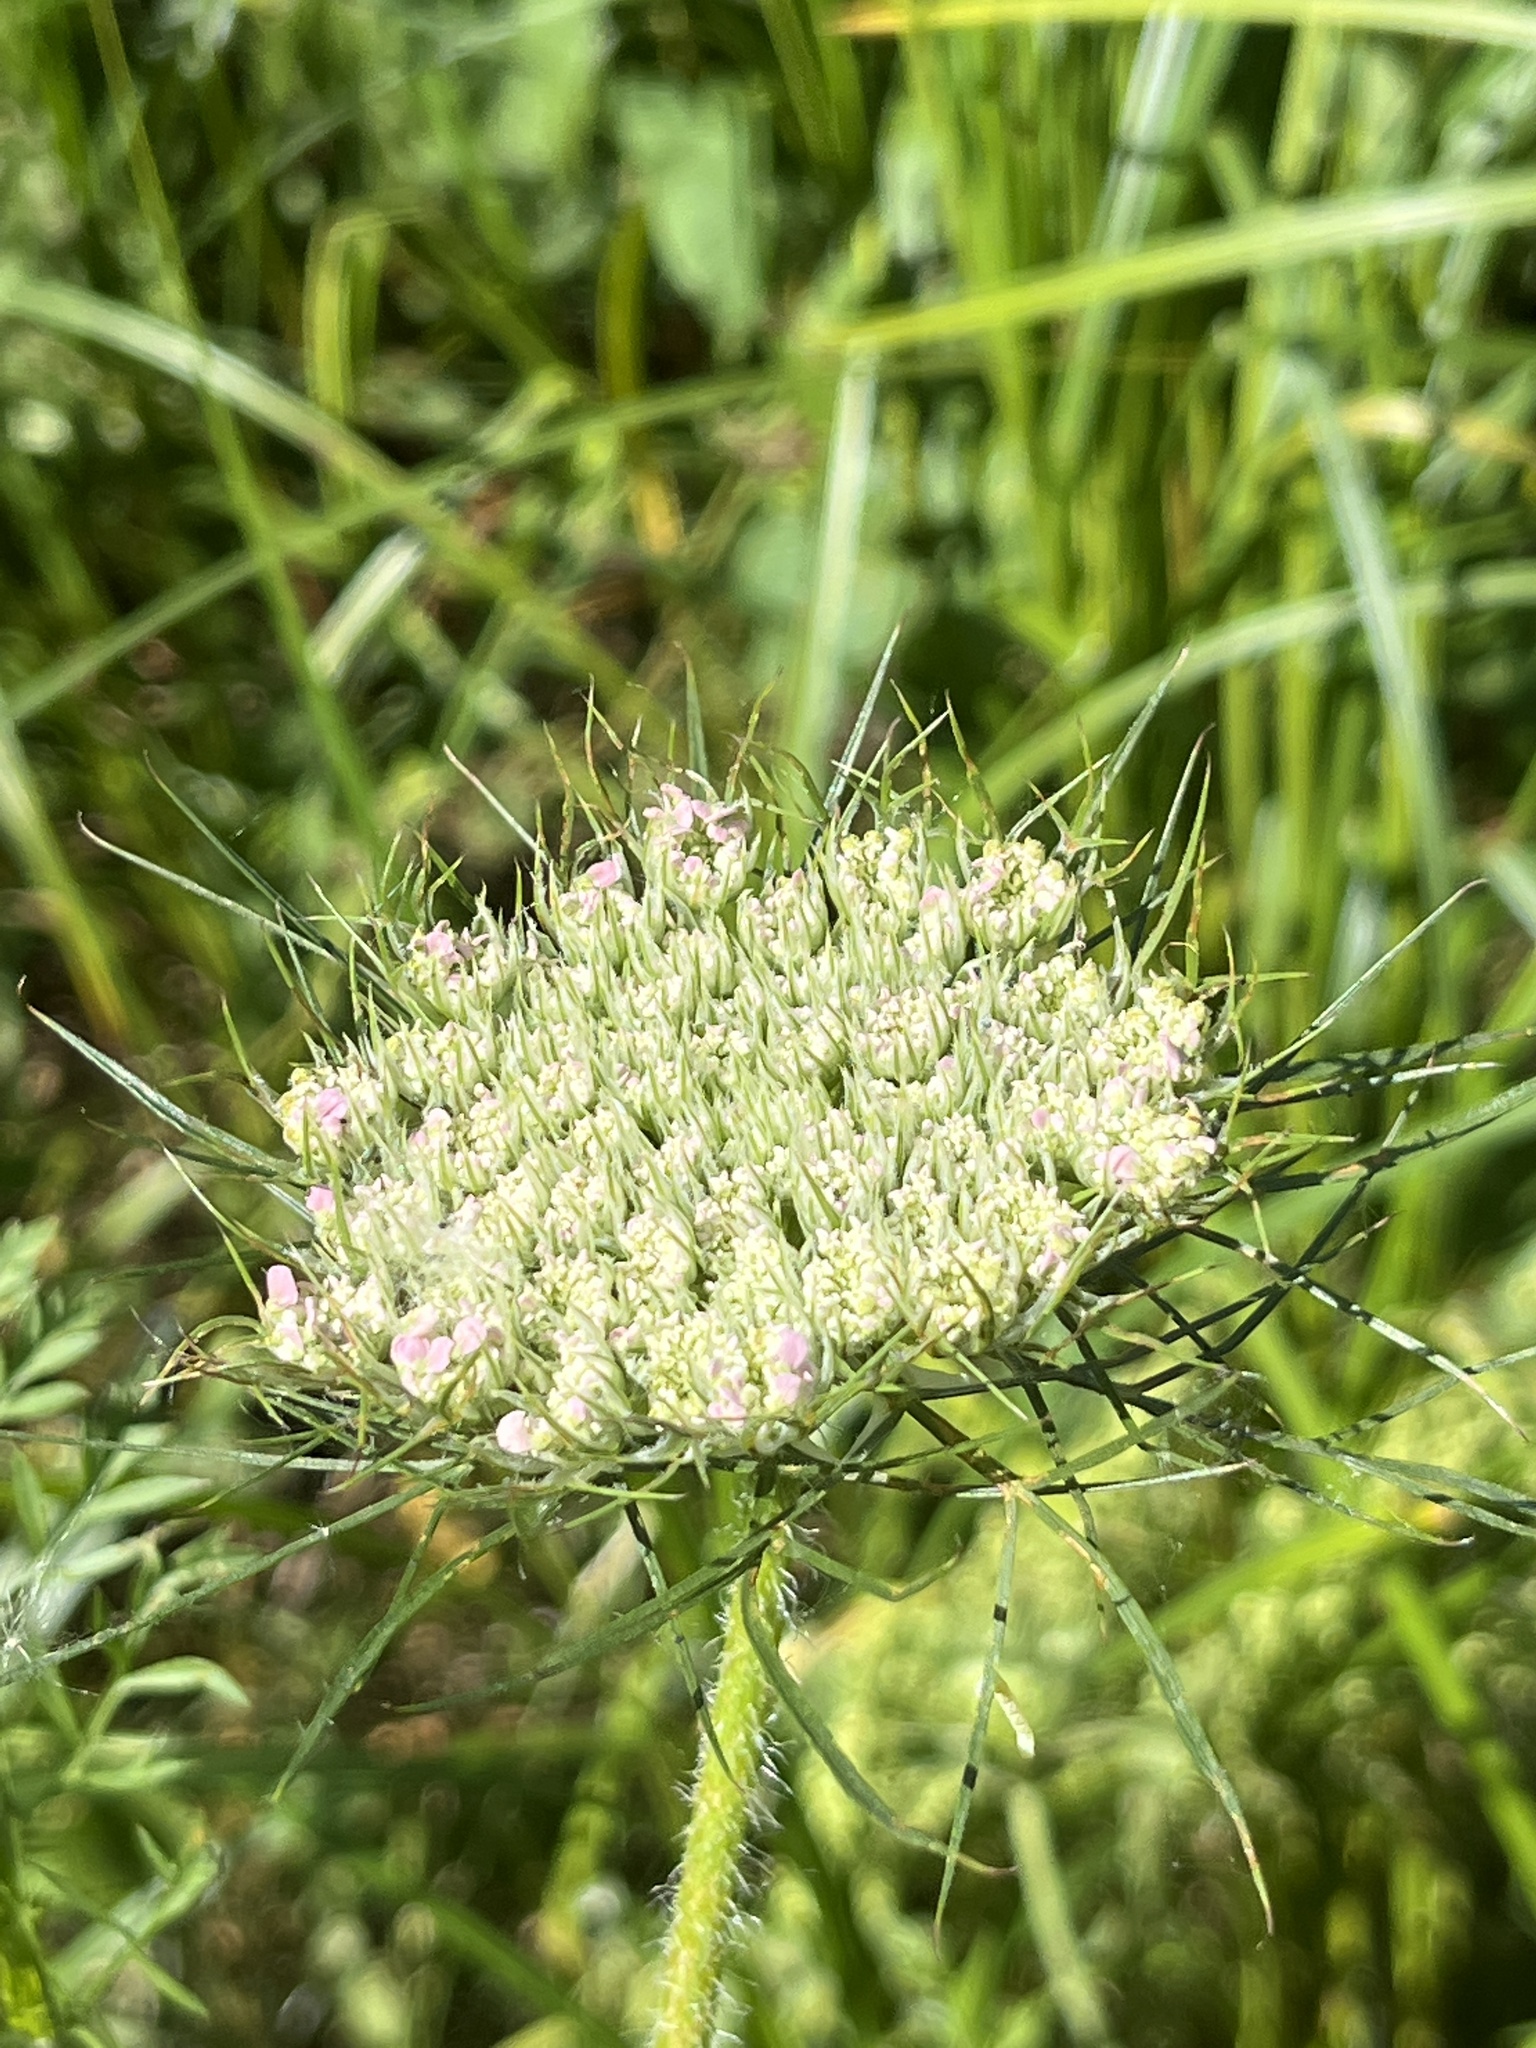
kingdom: Plantae
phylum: Tracheophyta
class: Magnoliopsida
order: Apiales
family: Apiaceae
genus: Daucus
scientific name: Daucus carota
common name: Wild carrot
